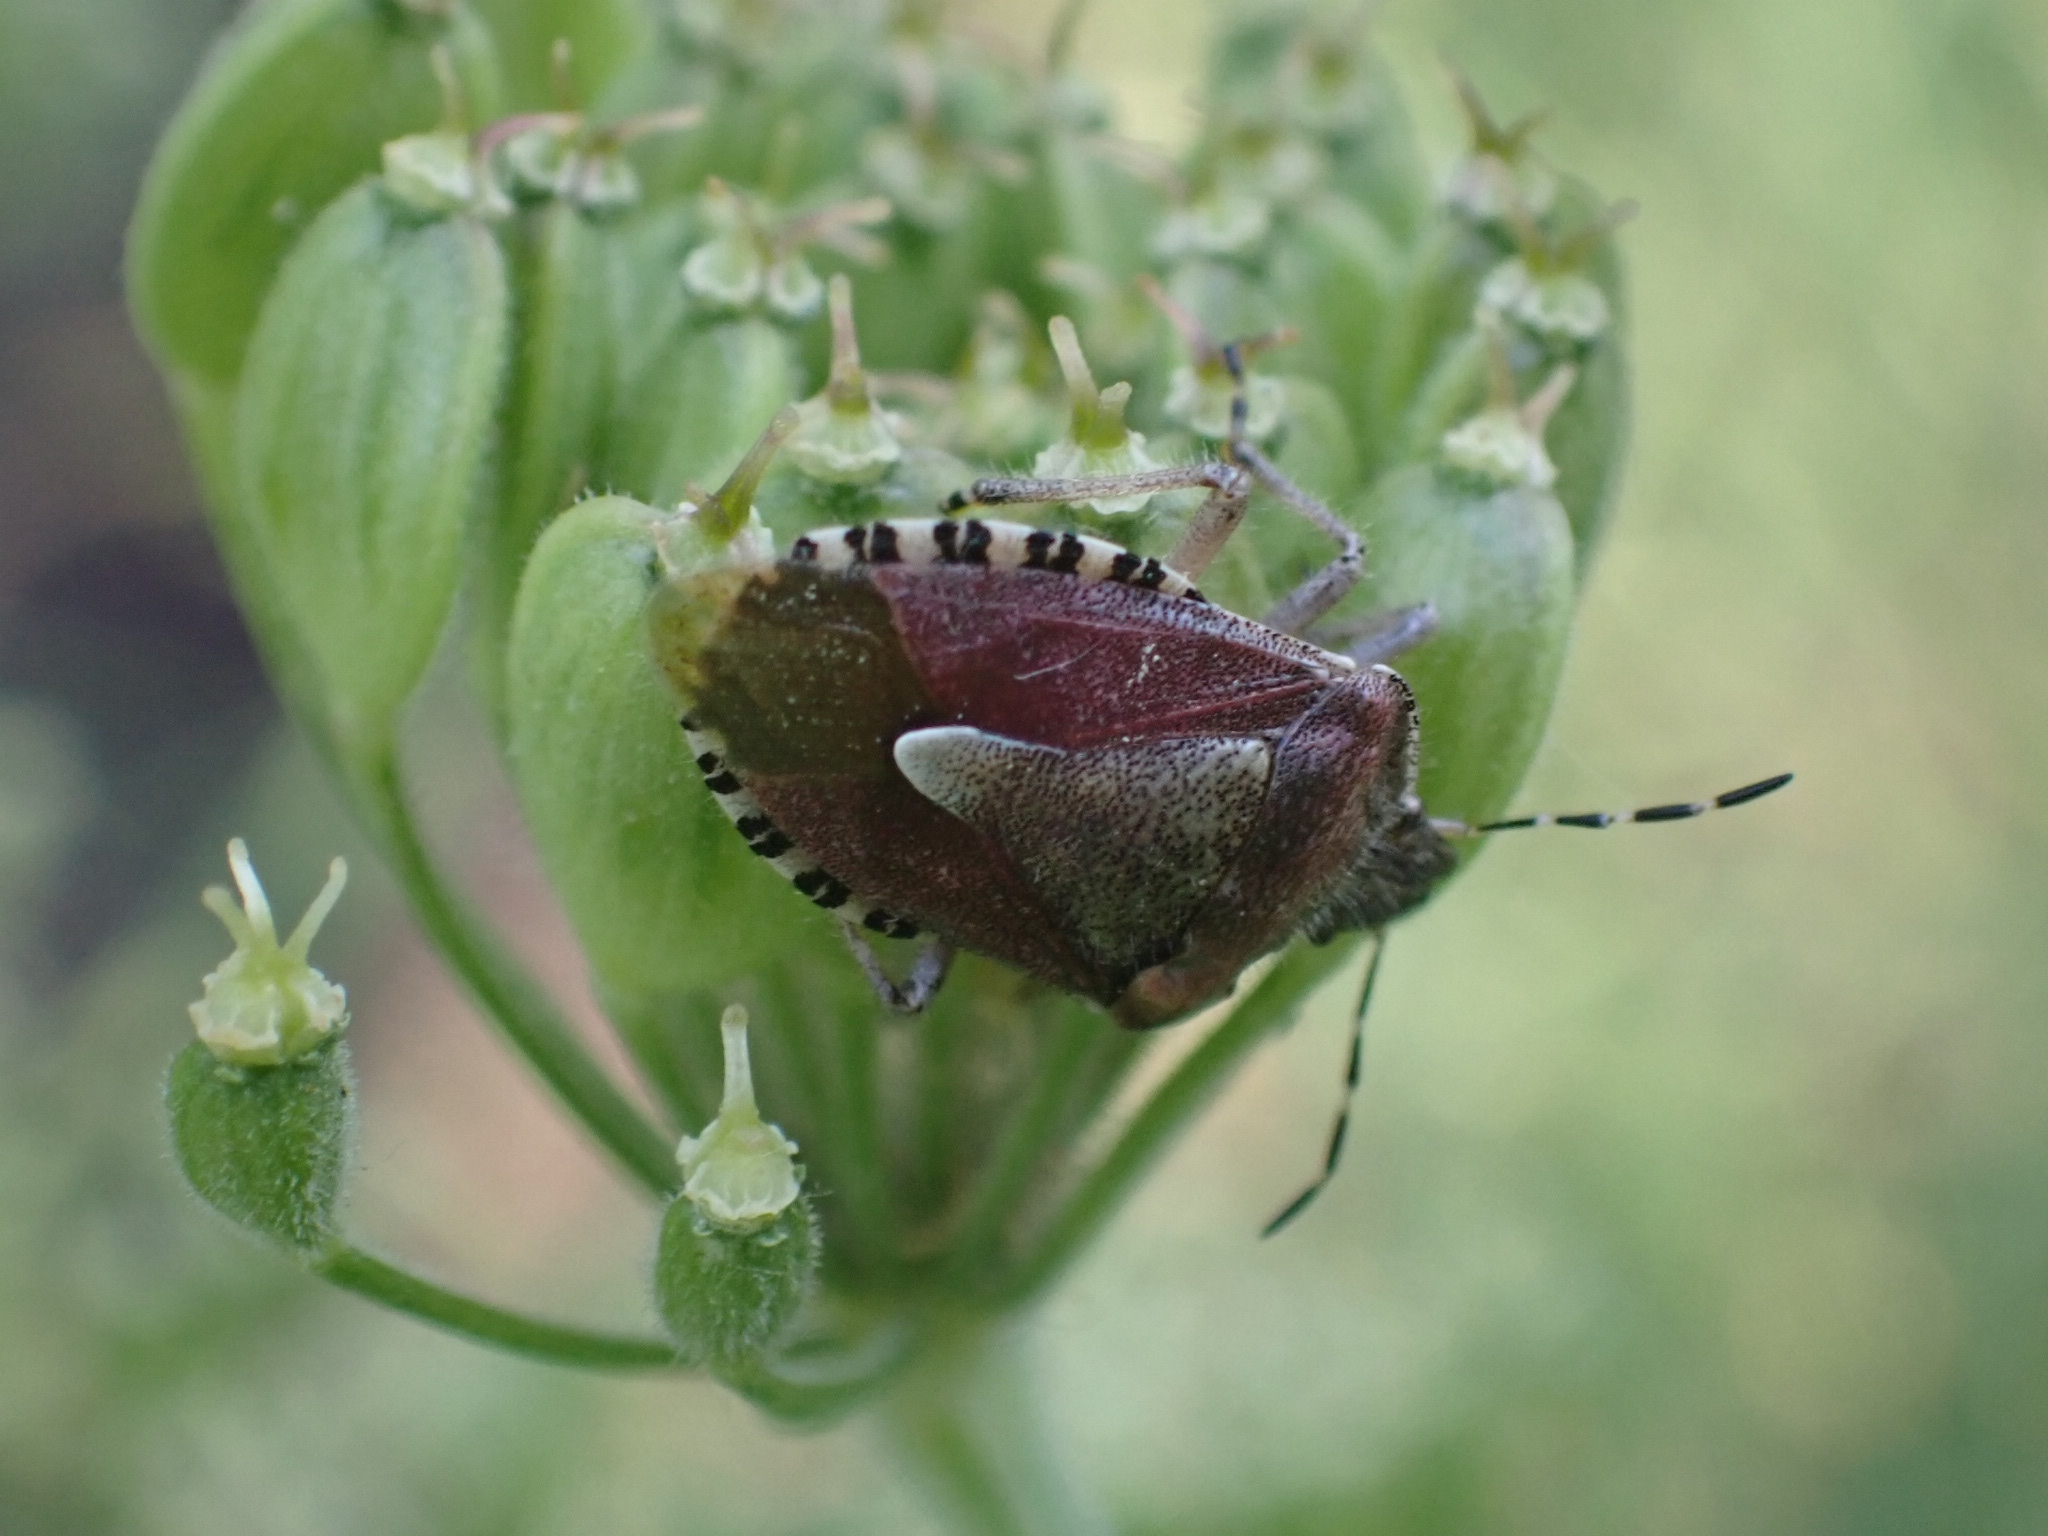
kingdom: Animalia
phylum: Arthropoda
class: Insecta
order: Hemiptera
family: Pentatomidae
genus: Dolycoris
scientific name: Dolycoris baccarum
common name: Sloe bug
